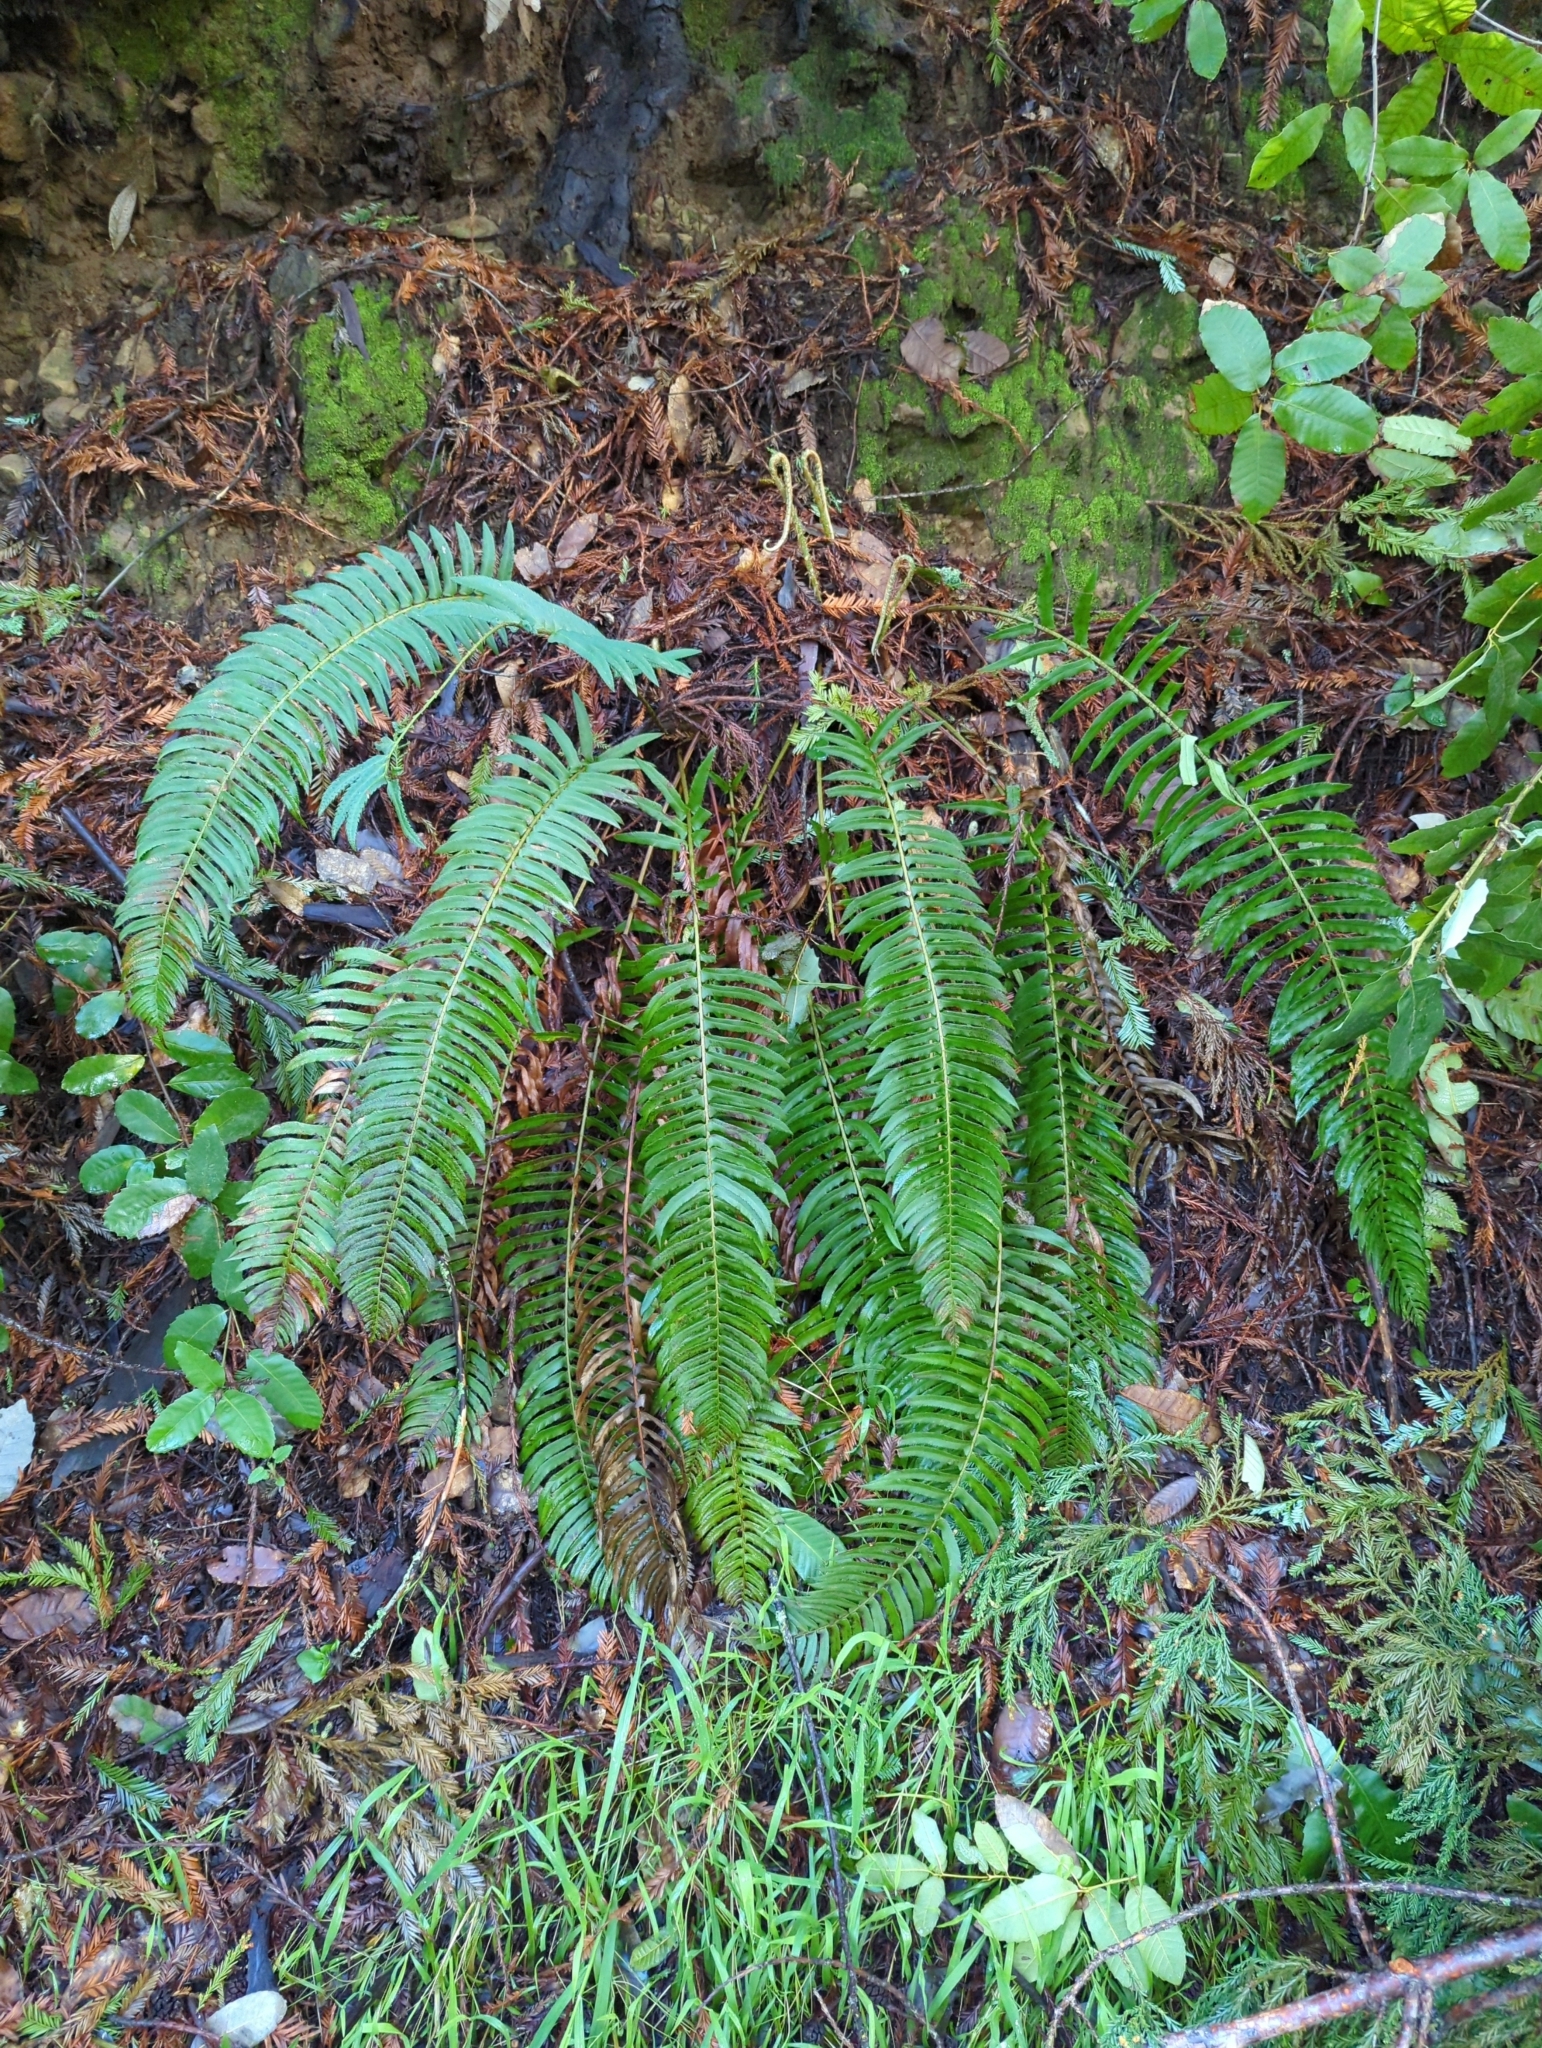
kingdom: Plantae
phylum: Tracheophyta
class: Polypodiopsida
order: Polypodiales
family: Dryopteridaceae
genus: Polystichum
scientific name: Polystichum munitum
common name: Western sword-fern
